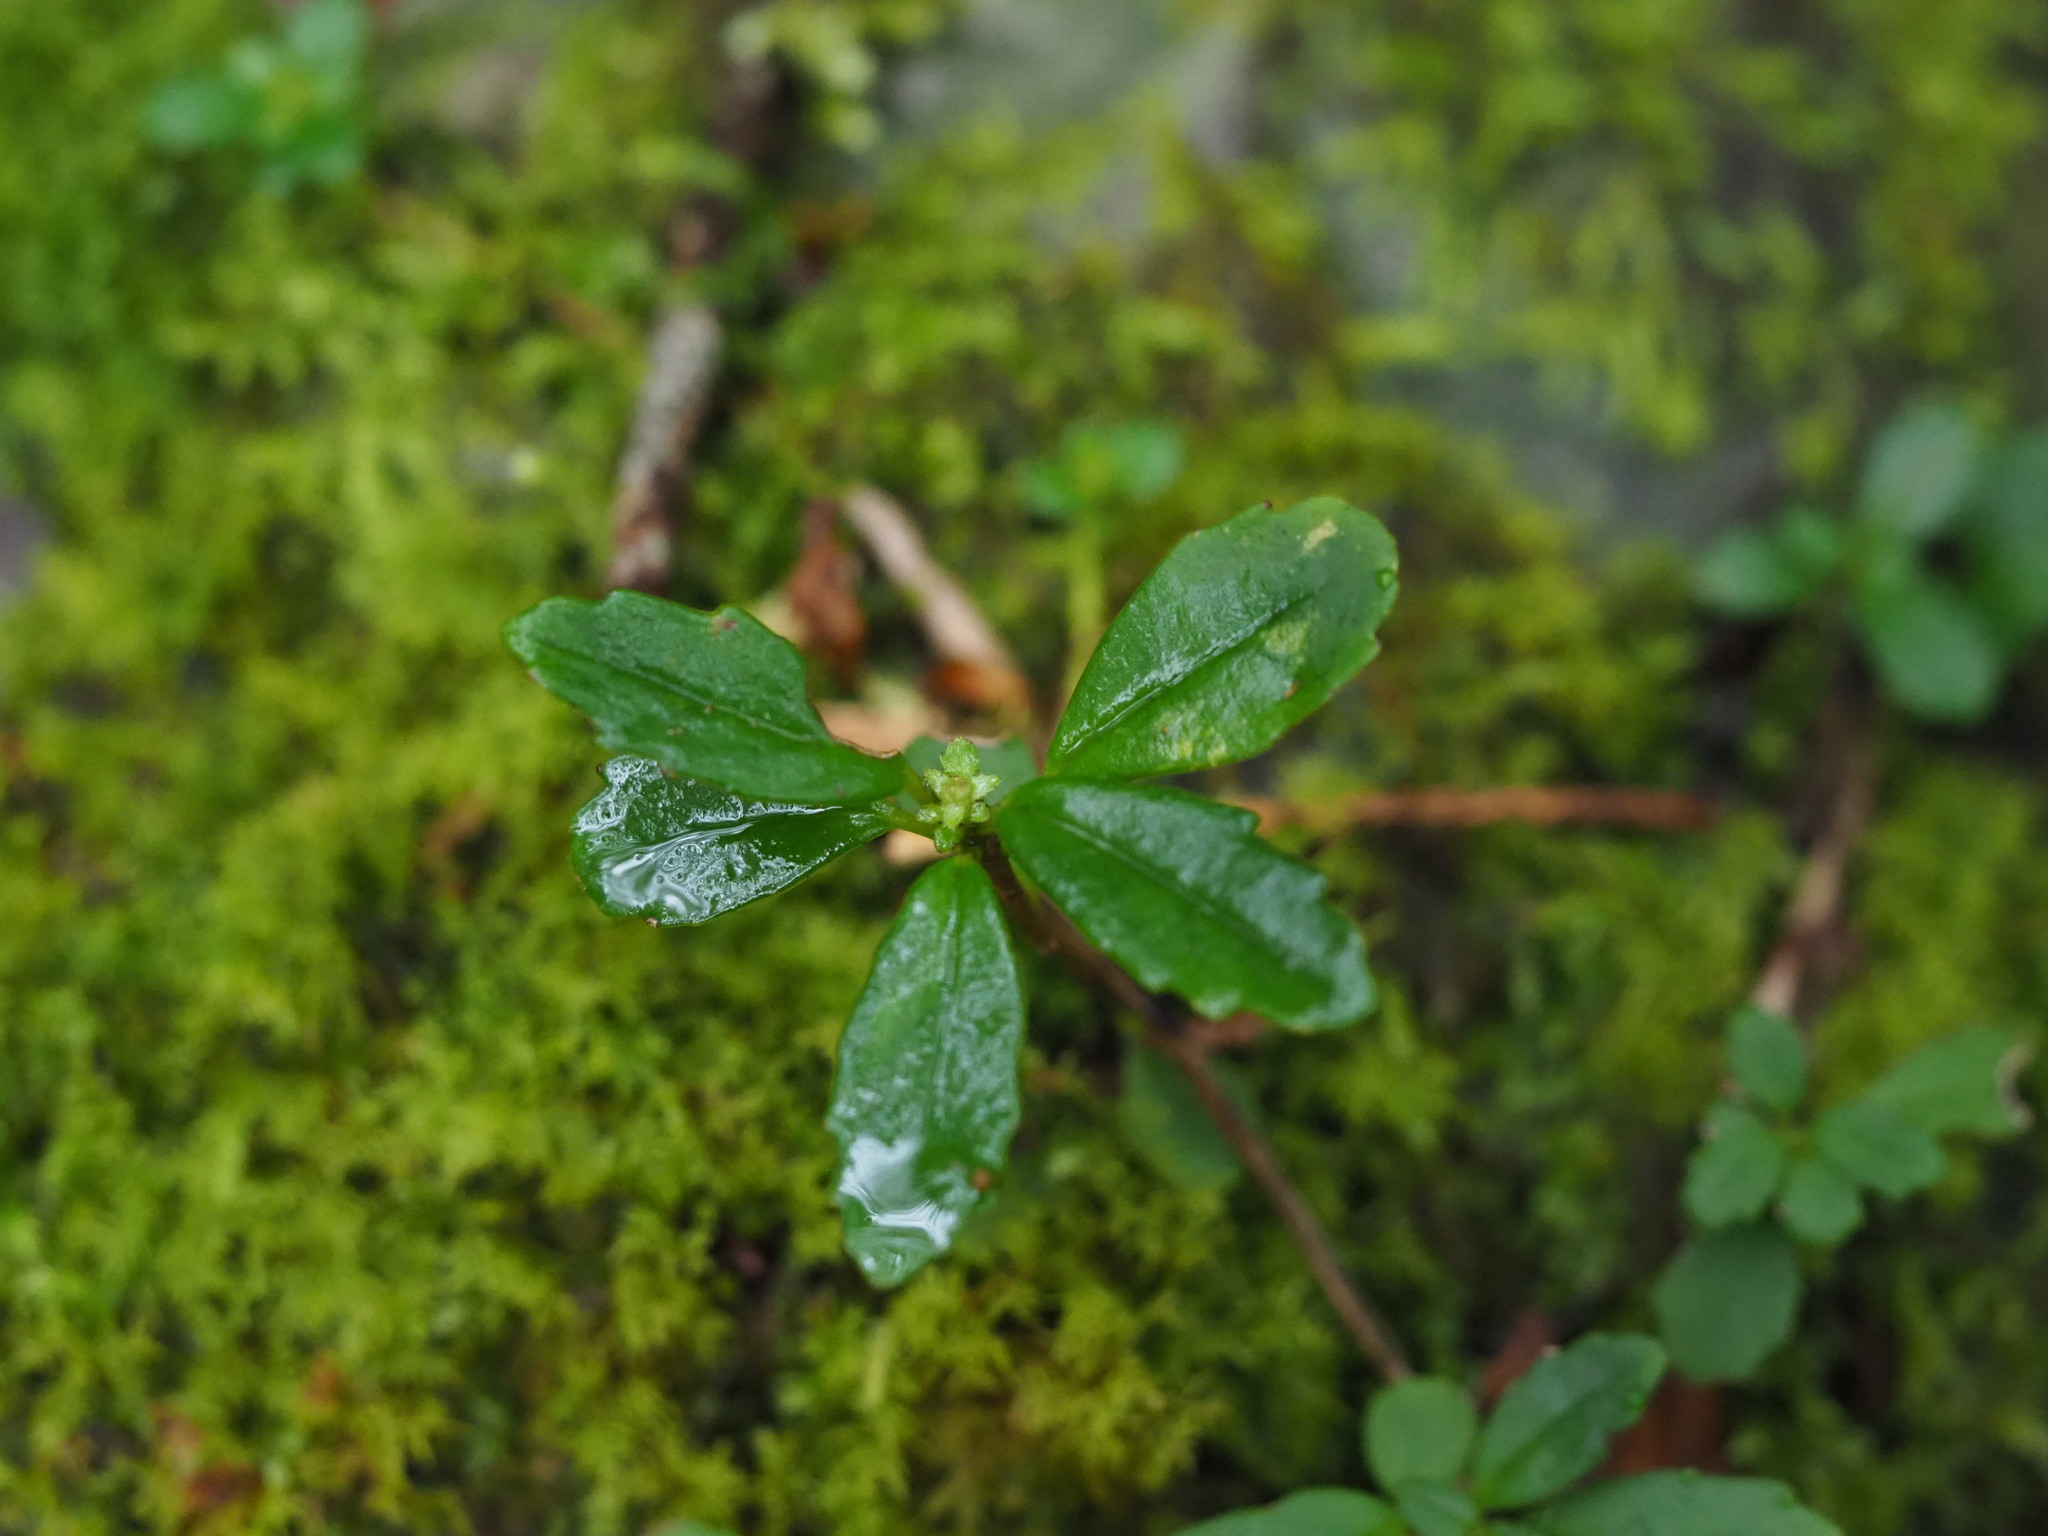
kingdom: Plantae
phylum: Tracheophyta
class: Magnoliopsida
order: Lamiales
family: Gesneriaceae
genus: Lysionotus
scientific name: Lysionotus pauciflorus
